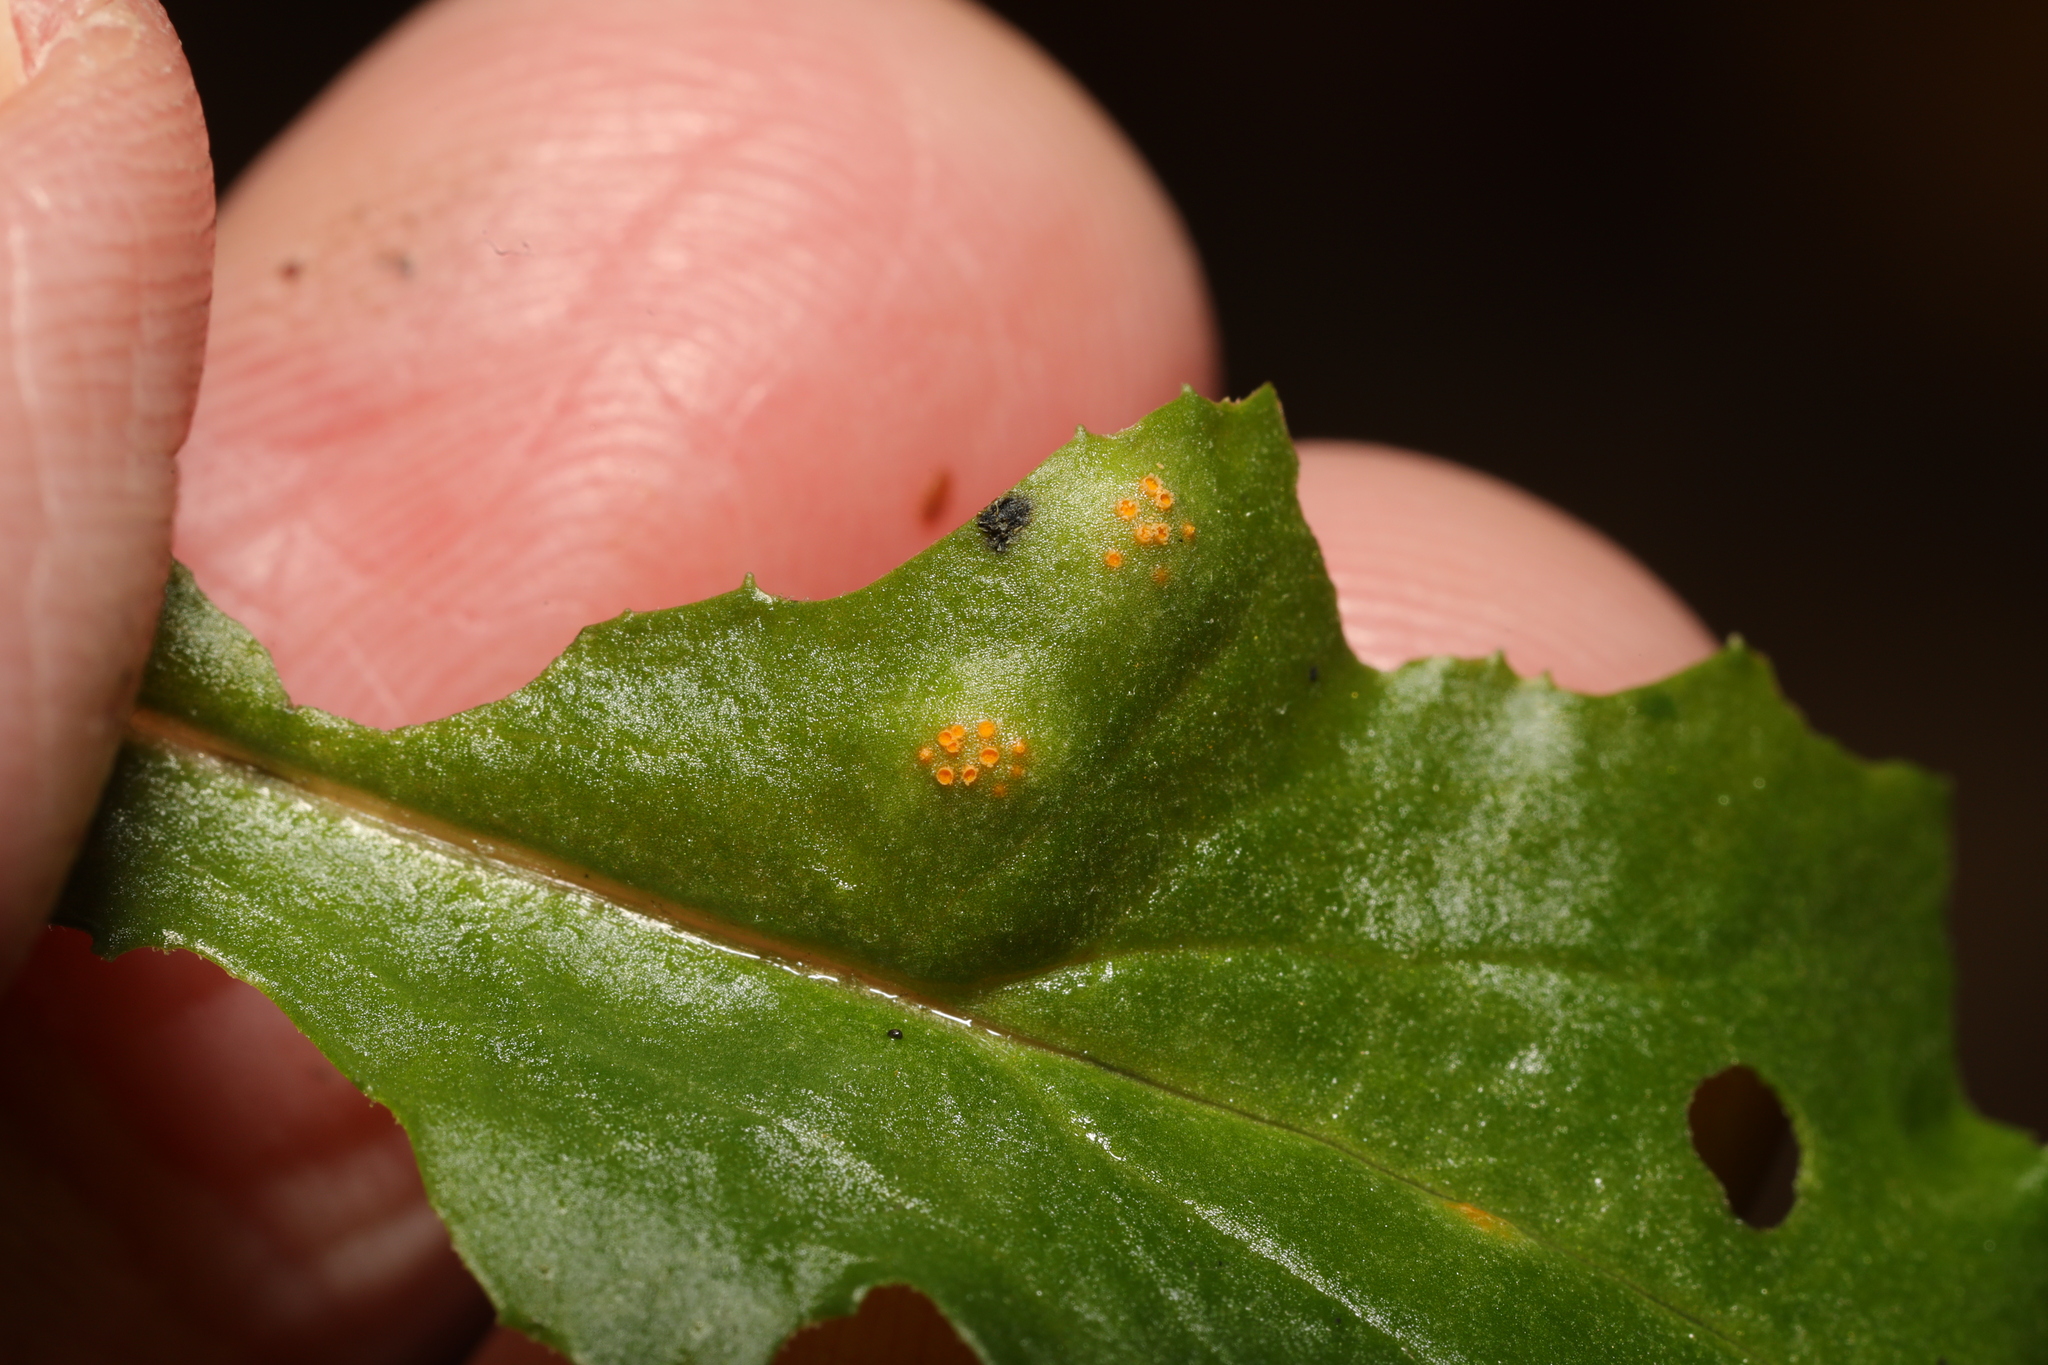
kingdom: Fungi
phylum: Basidiomycota
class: Pucciniomycetes
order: Pucciniales
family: Pucciniaceae
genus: Puccinia
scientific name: Puccinia lagenophorae
